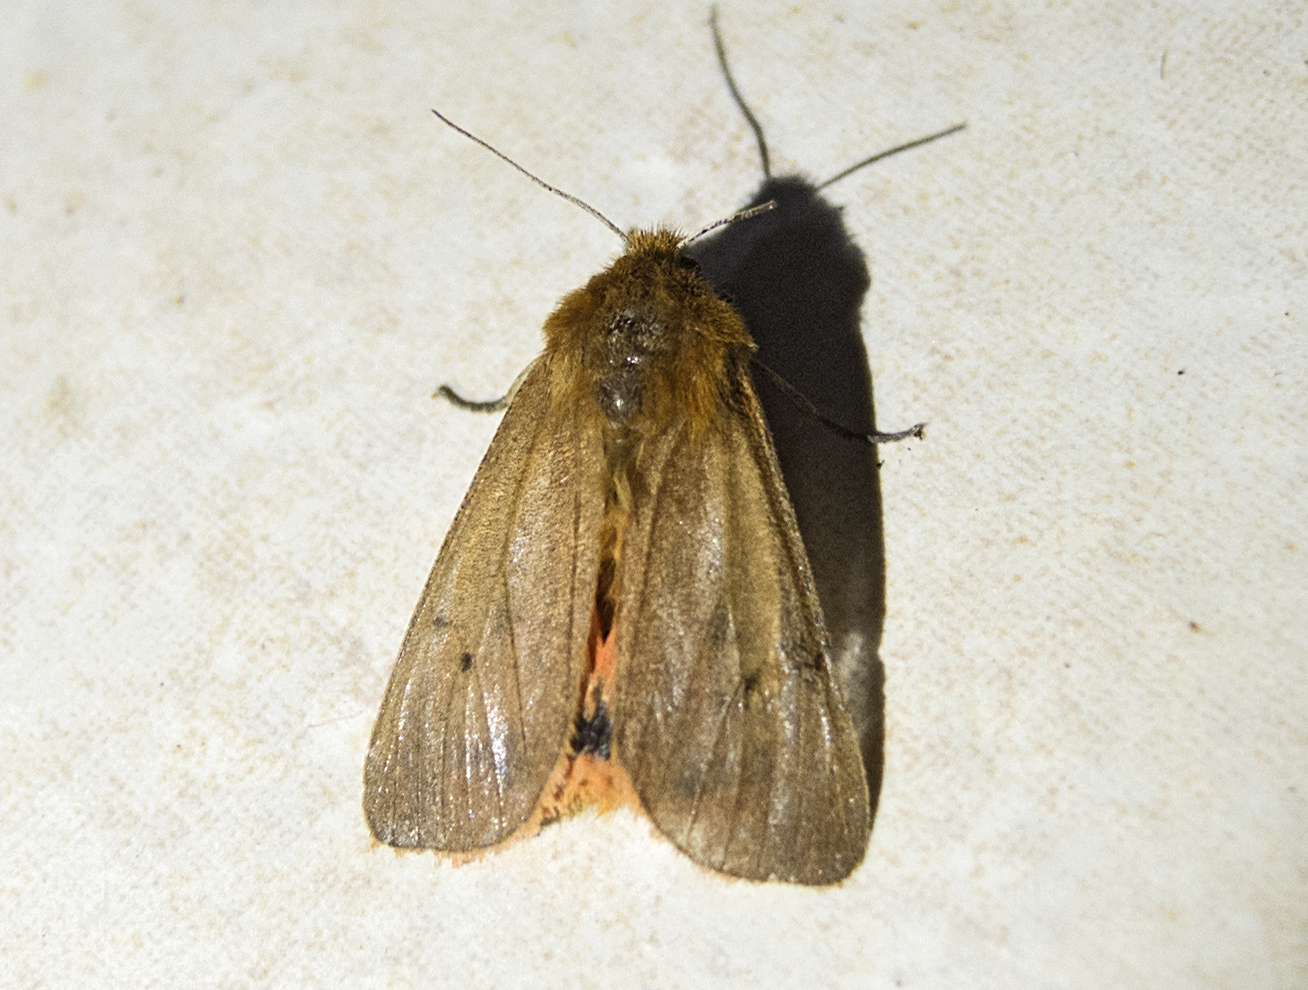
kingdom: Animalia
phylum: Arthropoda
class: Insecta
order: Lepidoptera
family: Erebidae
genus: Phragmatobia
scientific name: Phragmatobia fuliginosa
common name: Ruby tiger
